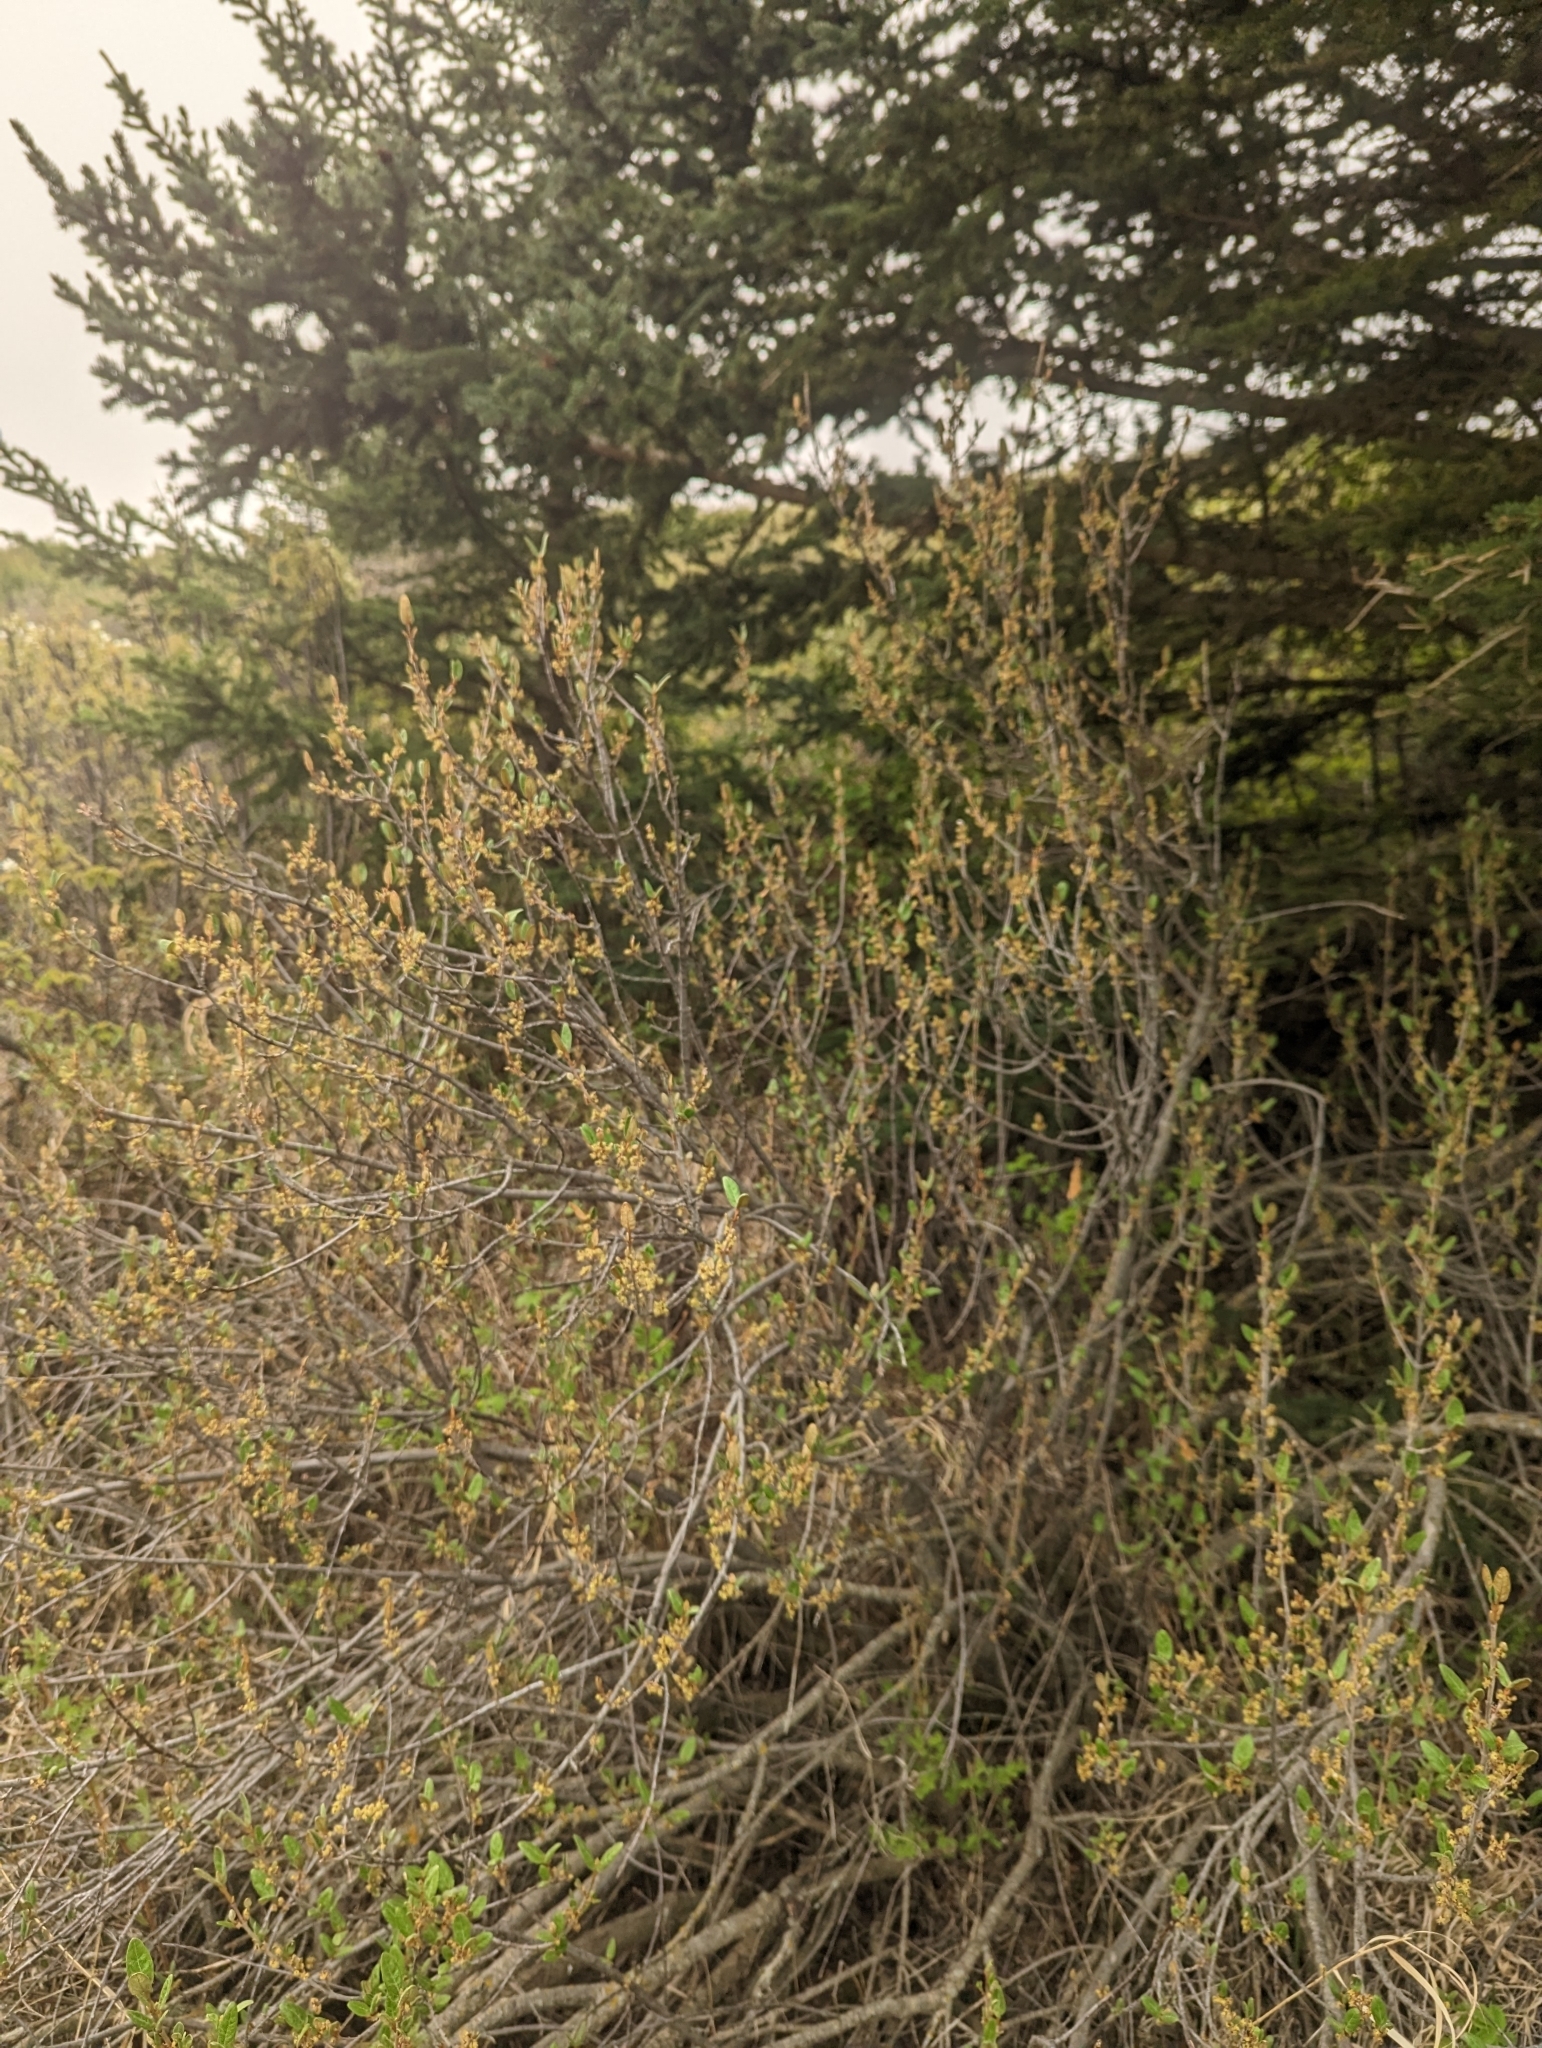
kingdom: Plantae
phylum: Tracheophyta
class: Magnoliopsida
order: Rosales
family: Elaeagnaceae
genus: Shepherdia
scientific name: Shepherdia canadensis
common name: Soapberry
